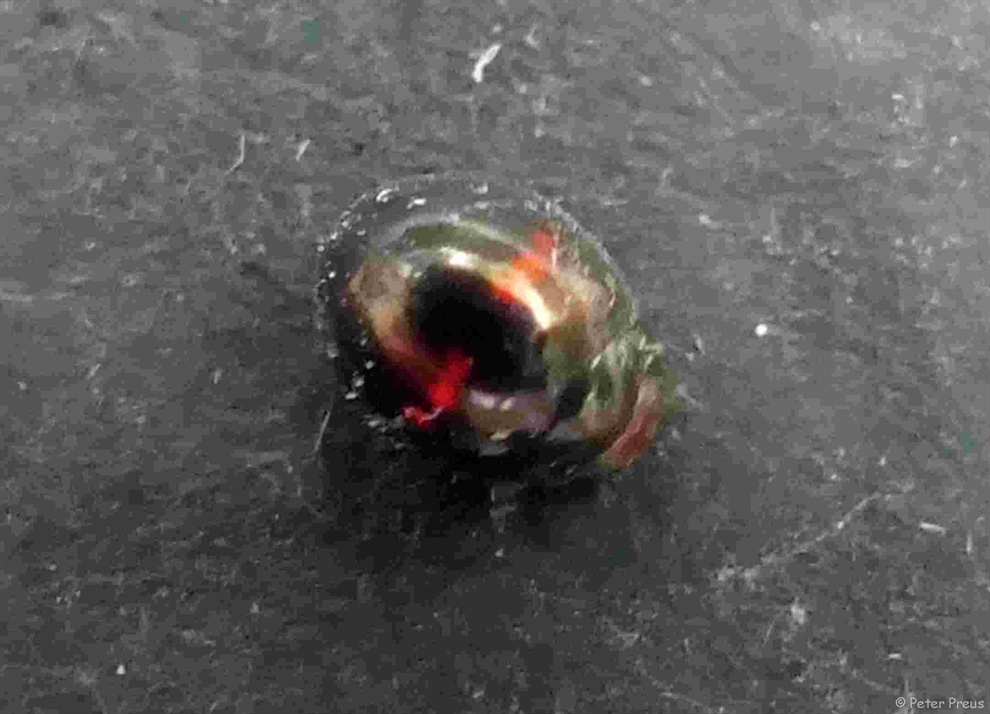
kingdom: Animalia
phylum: Arthropoda
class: Insecta
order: Coleoptera
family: Coccinellidae
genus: Chilocorus
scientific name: Chilocorus bipustulatus
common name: Heather ladybird
